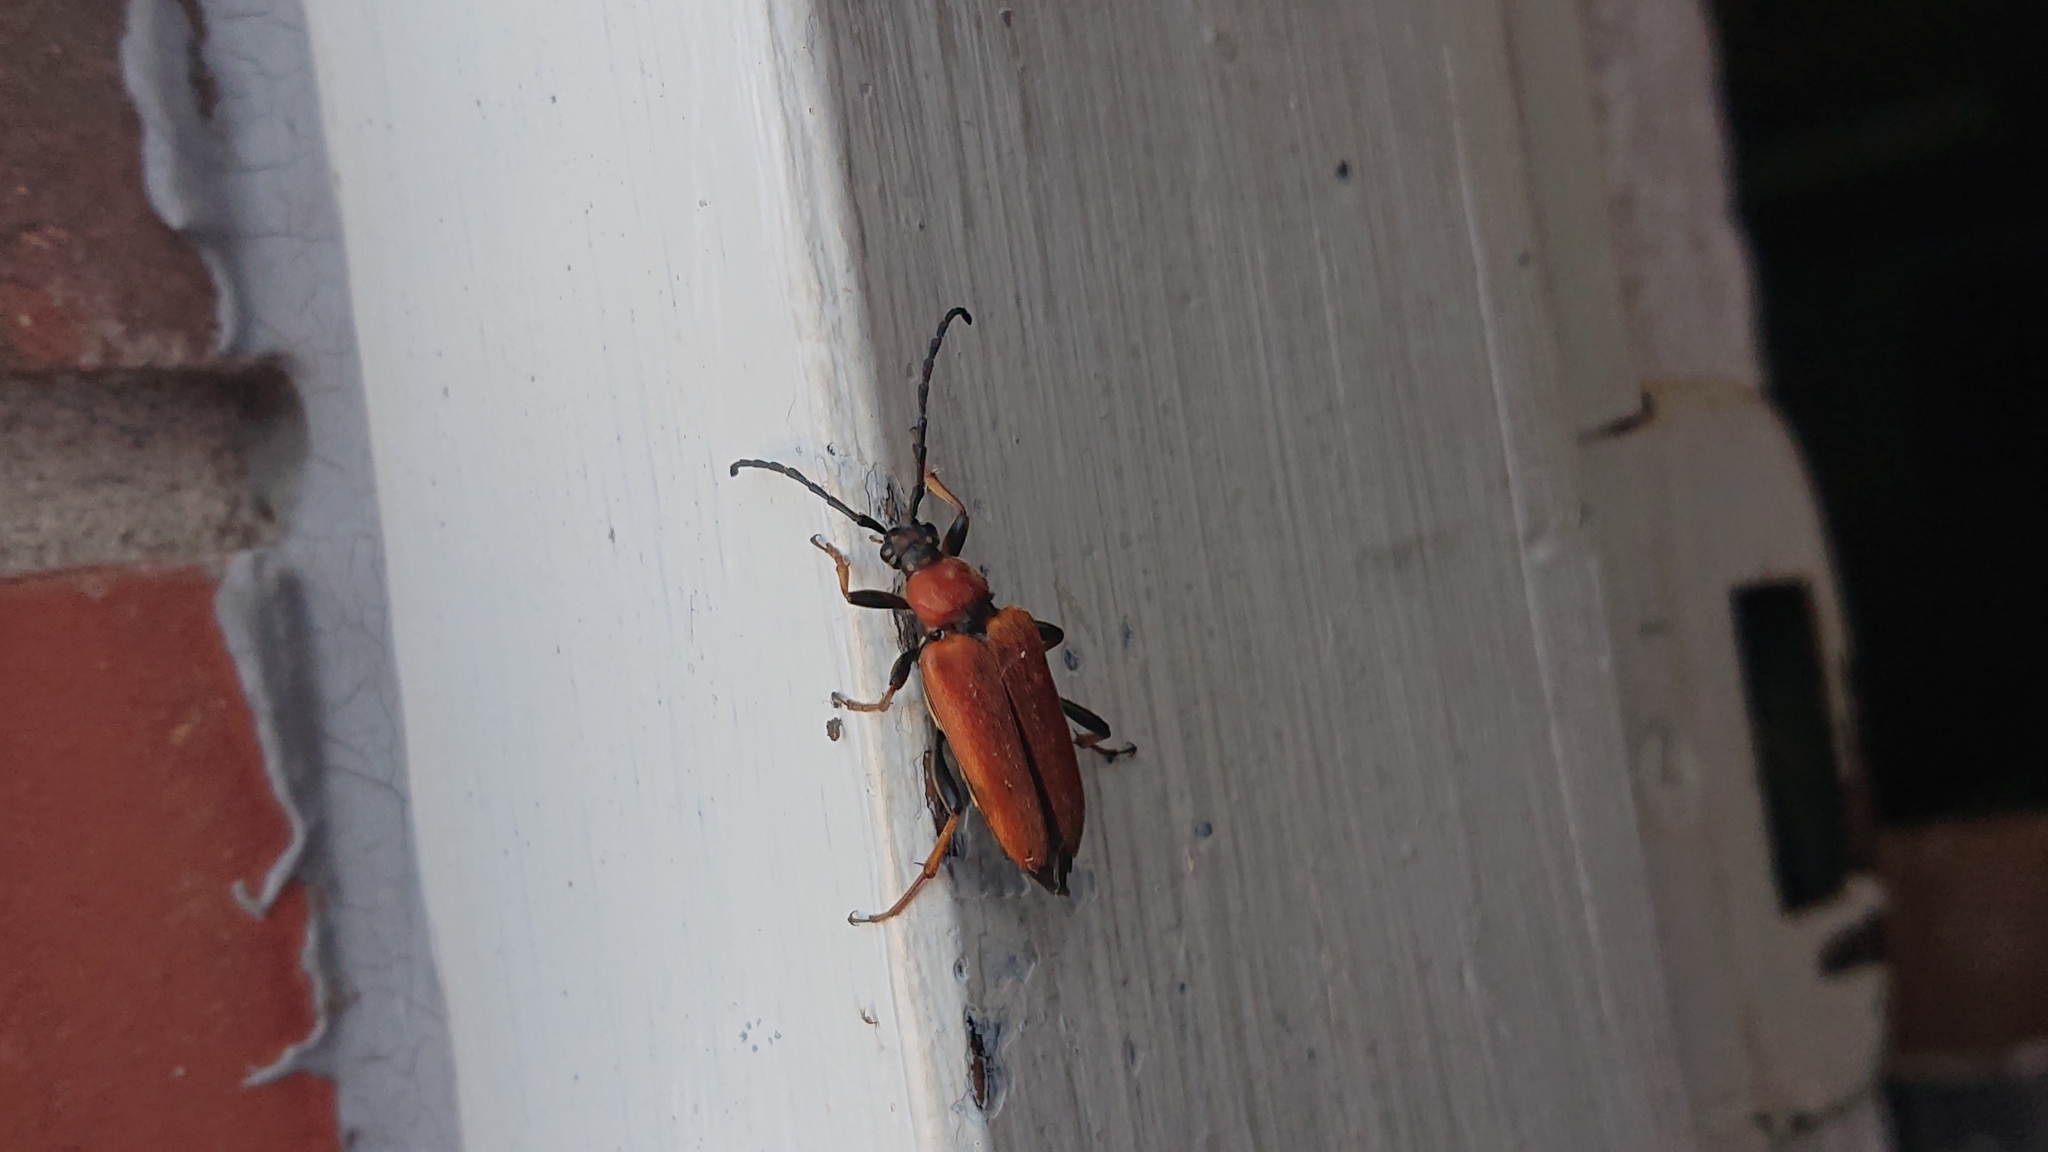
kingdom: Animalia
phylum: Arthropoda
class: Insecta
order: Coleoptera
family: Cerambycidae
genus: Stictoleptura
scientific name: Stictoleptura rubra
